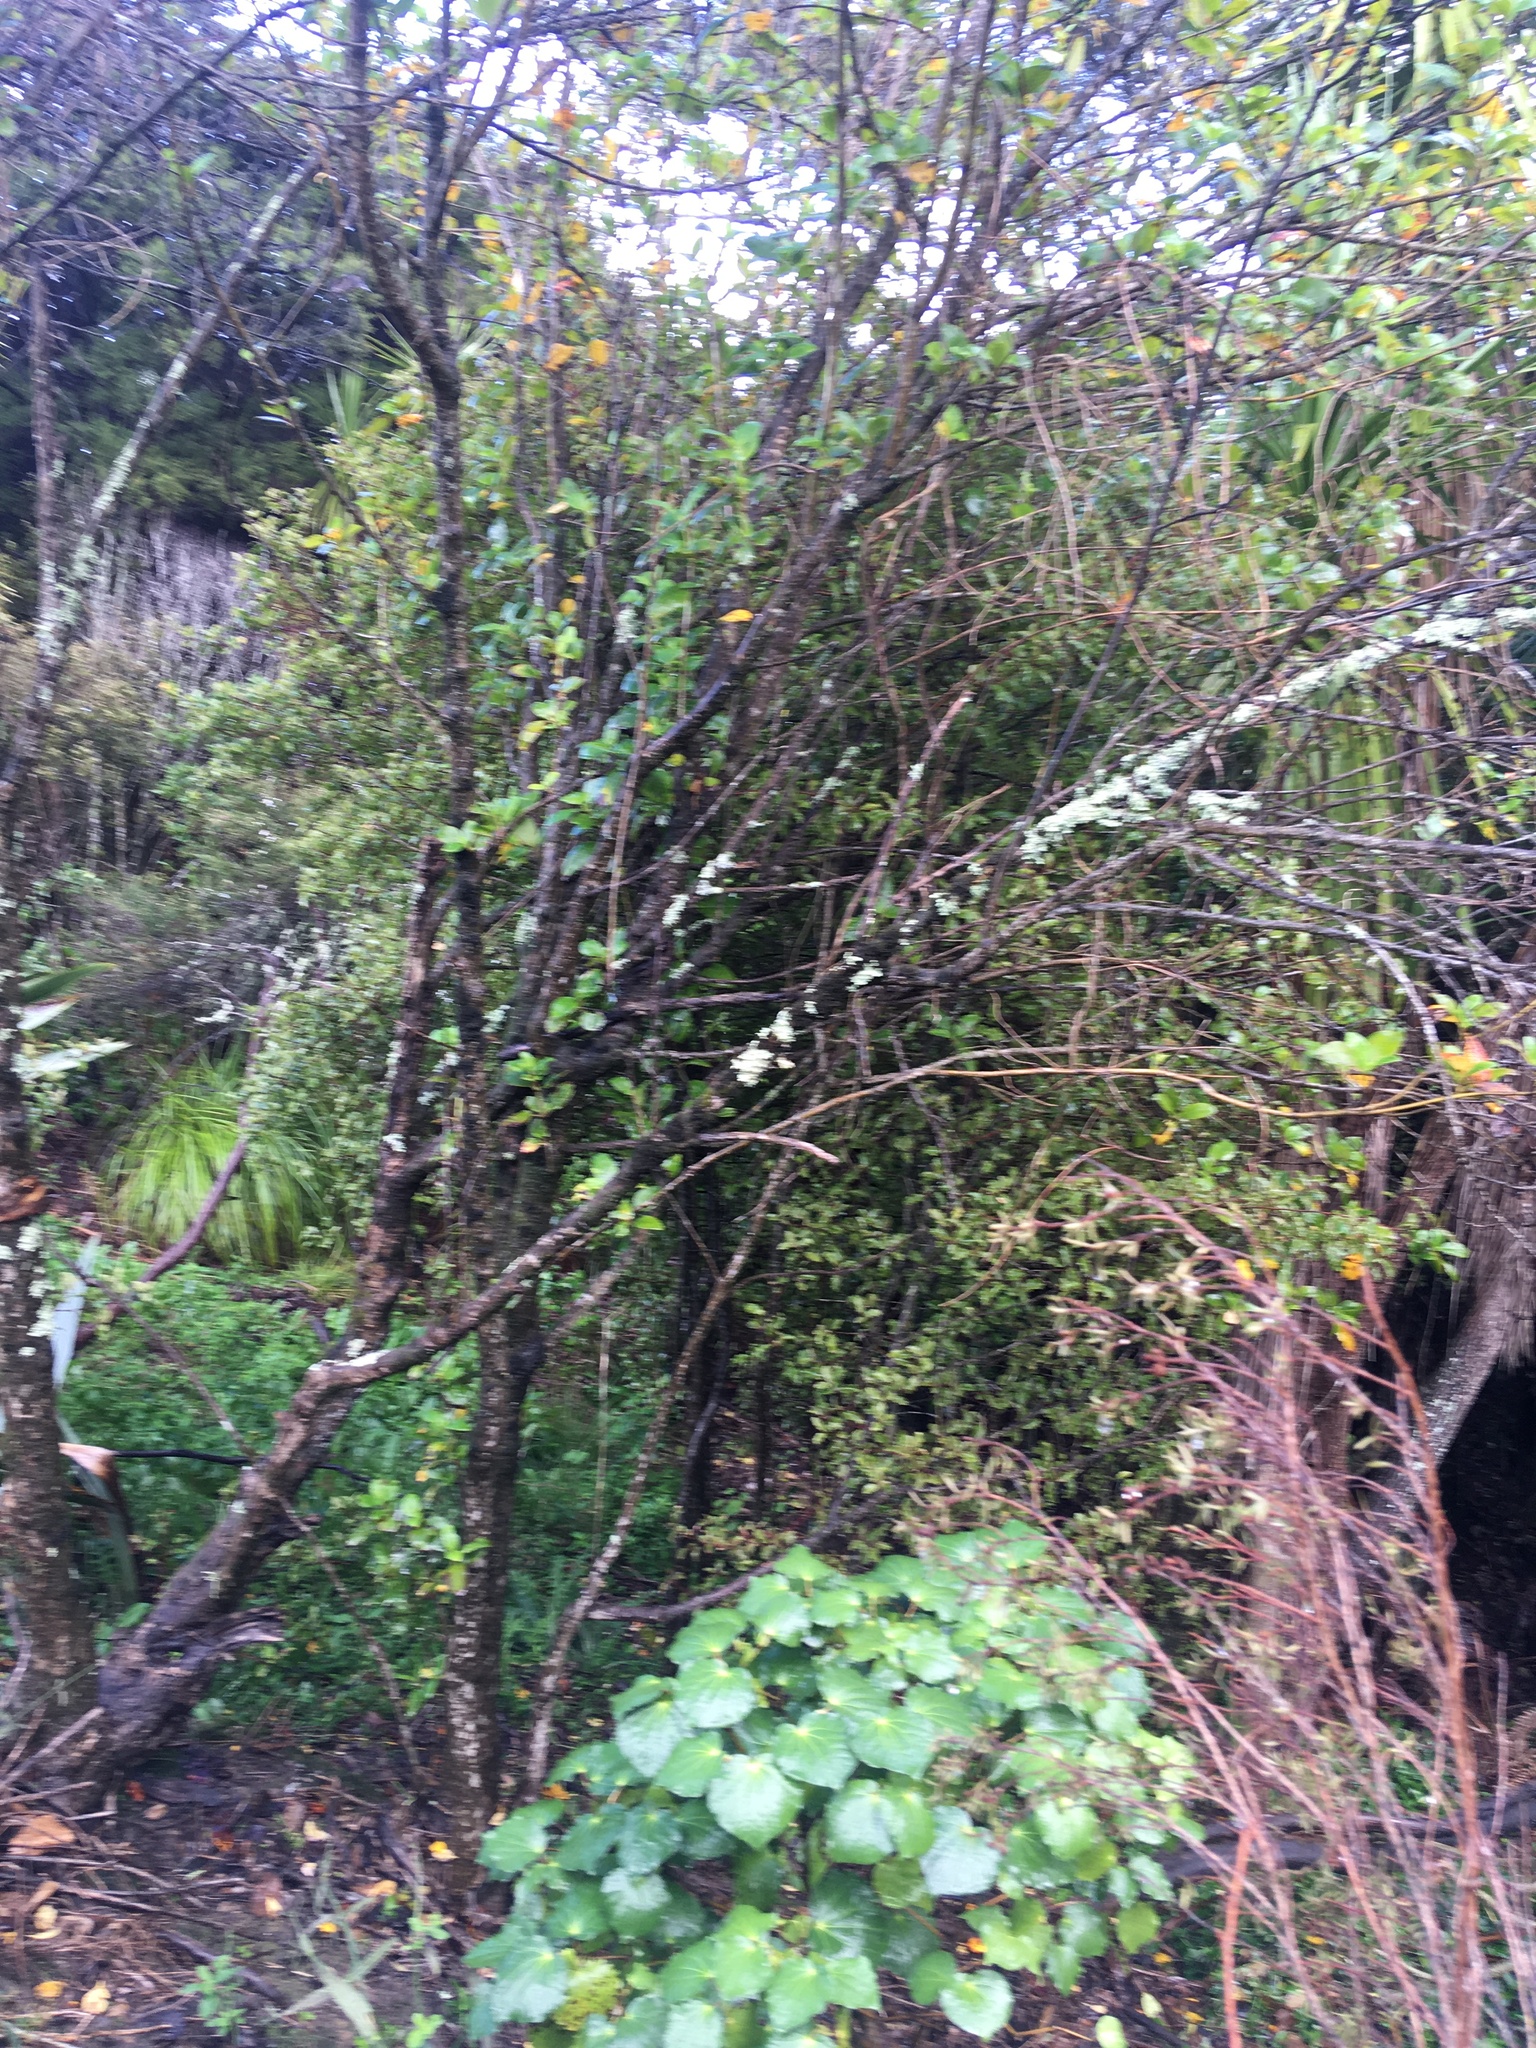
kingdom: Plantae
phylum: Tracheophyta
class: Magnoliopsida
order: Gentianales
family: Rubiaceae
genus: Coprosma
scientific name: Coprosma robusta
